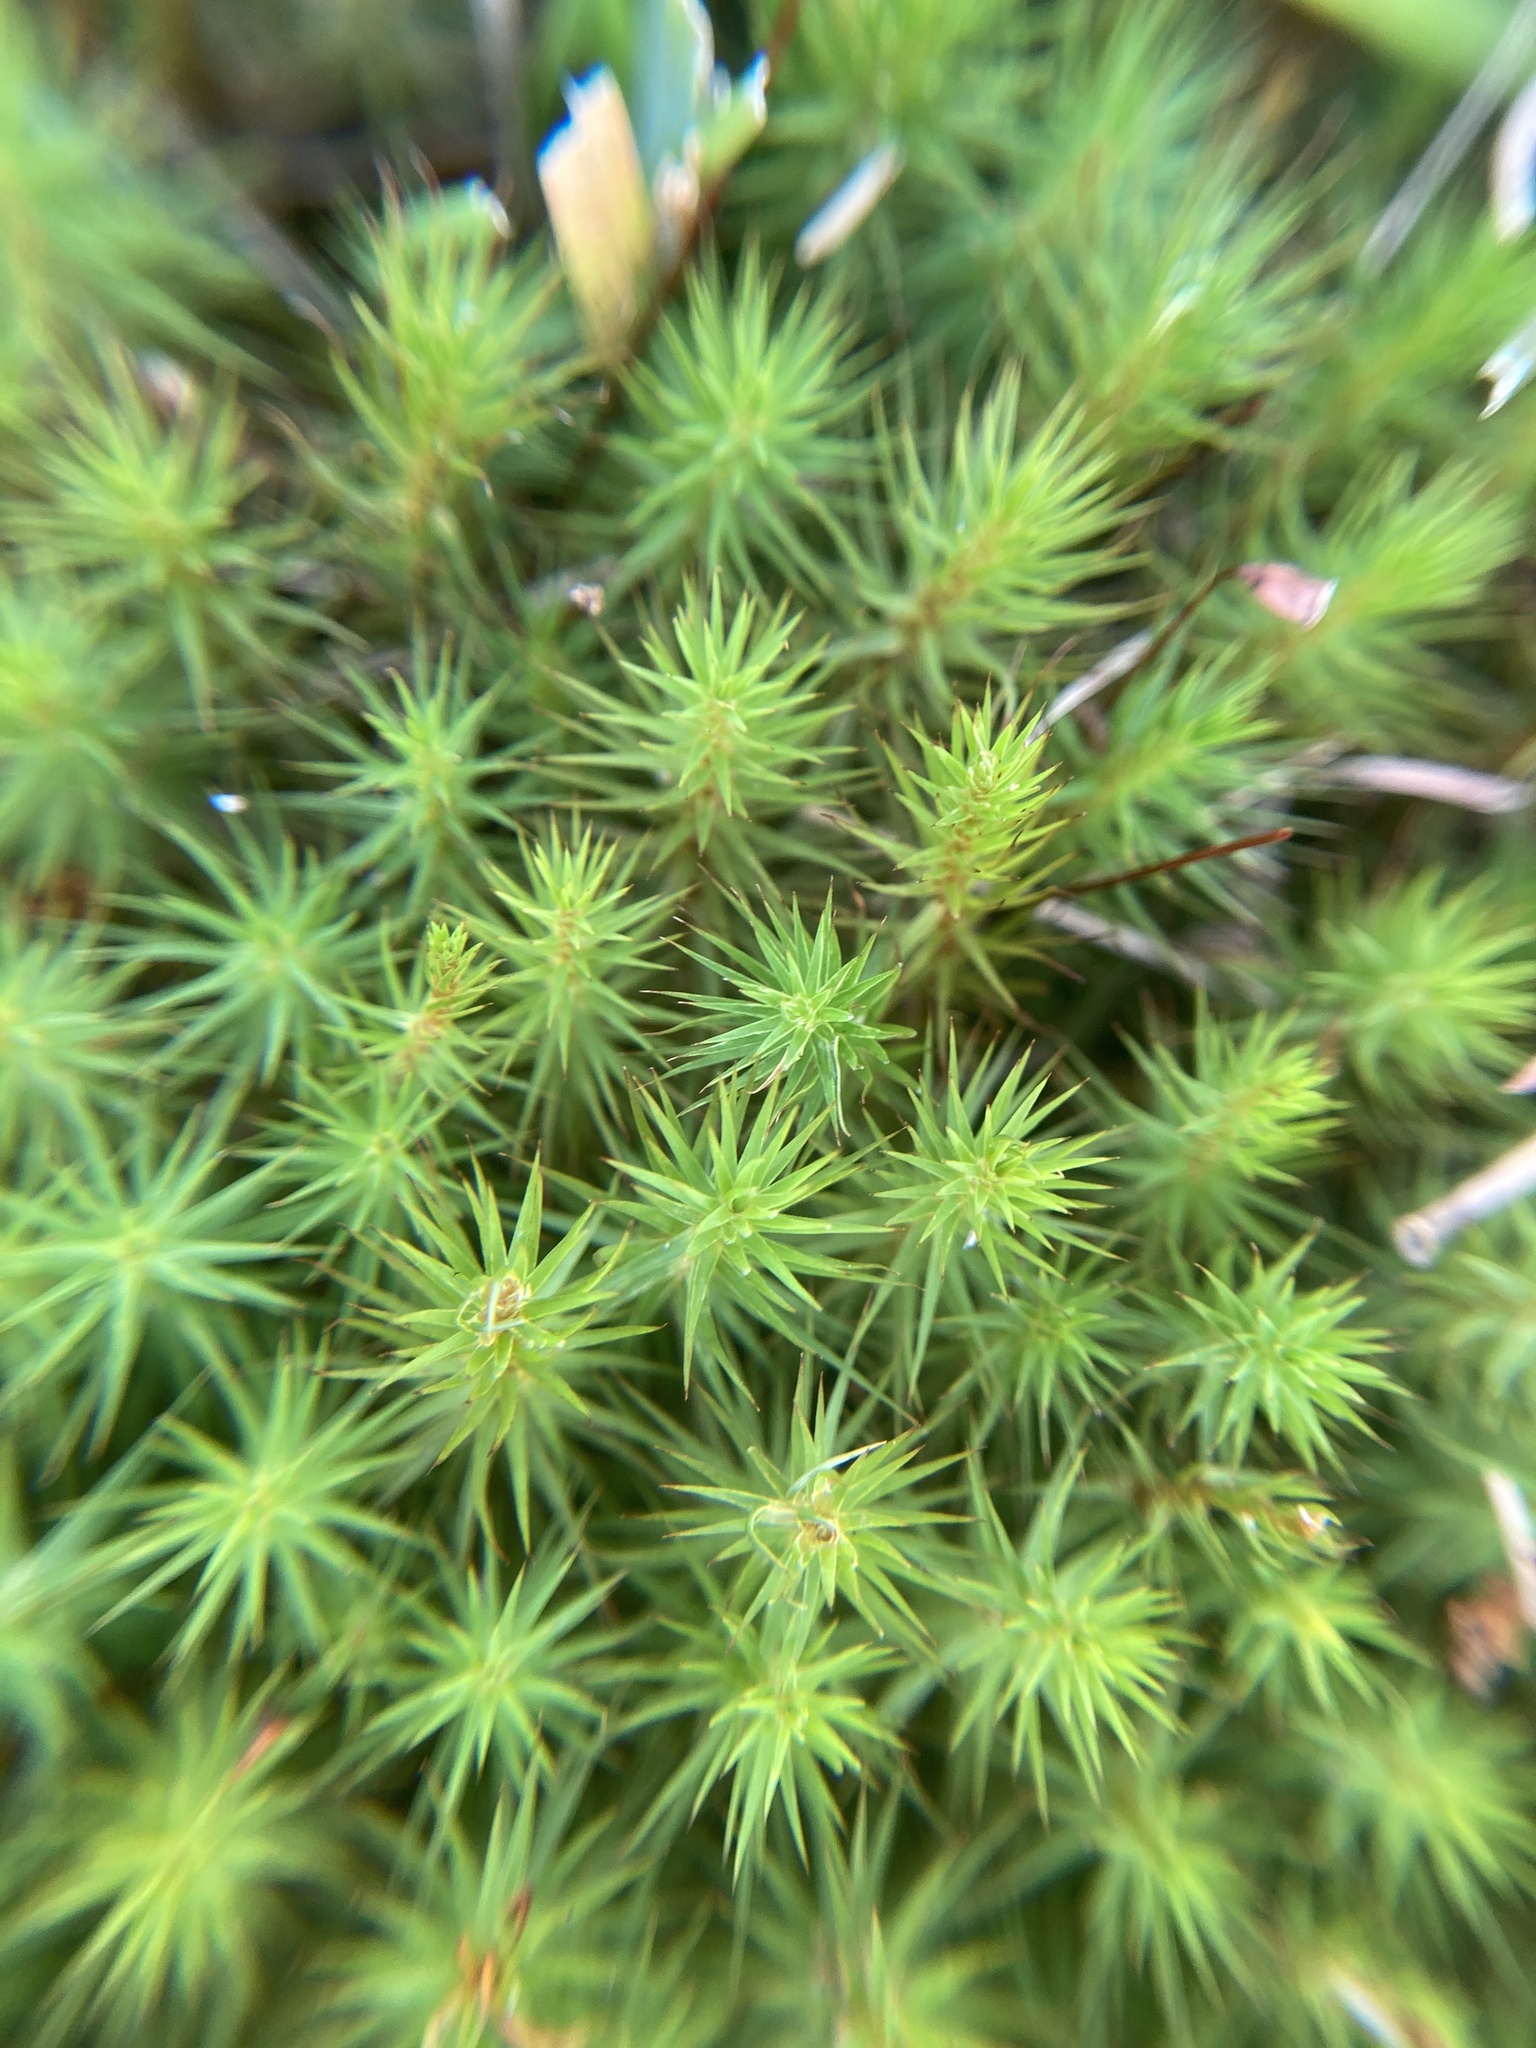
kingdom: Plantae
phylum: Bryophyta
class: Polytrichopsida
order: Polytrichales
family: Polytrichaceae
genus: Polytrichum
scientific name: Polytrichum commune
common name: Common haircap
